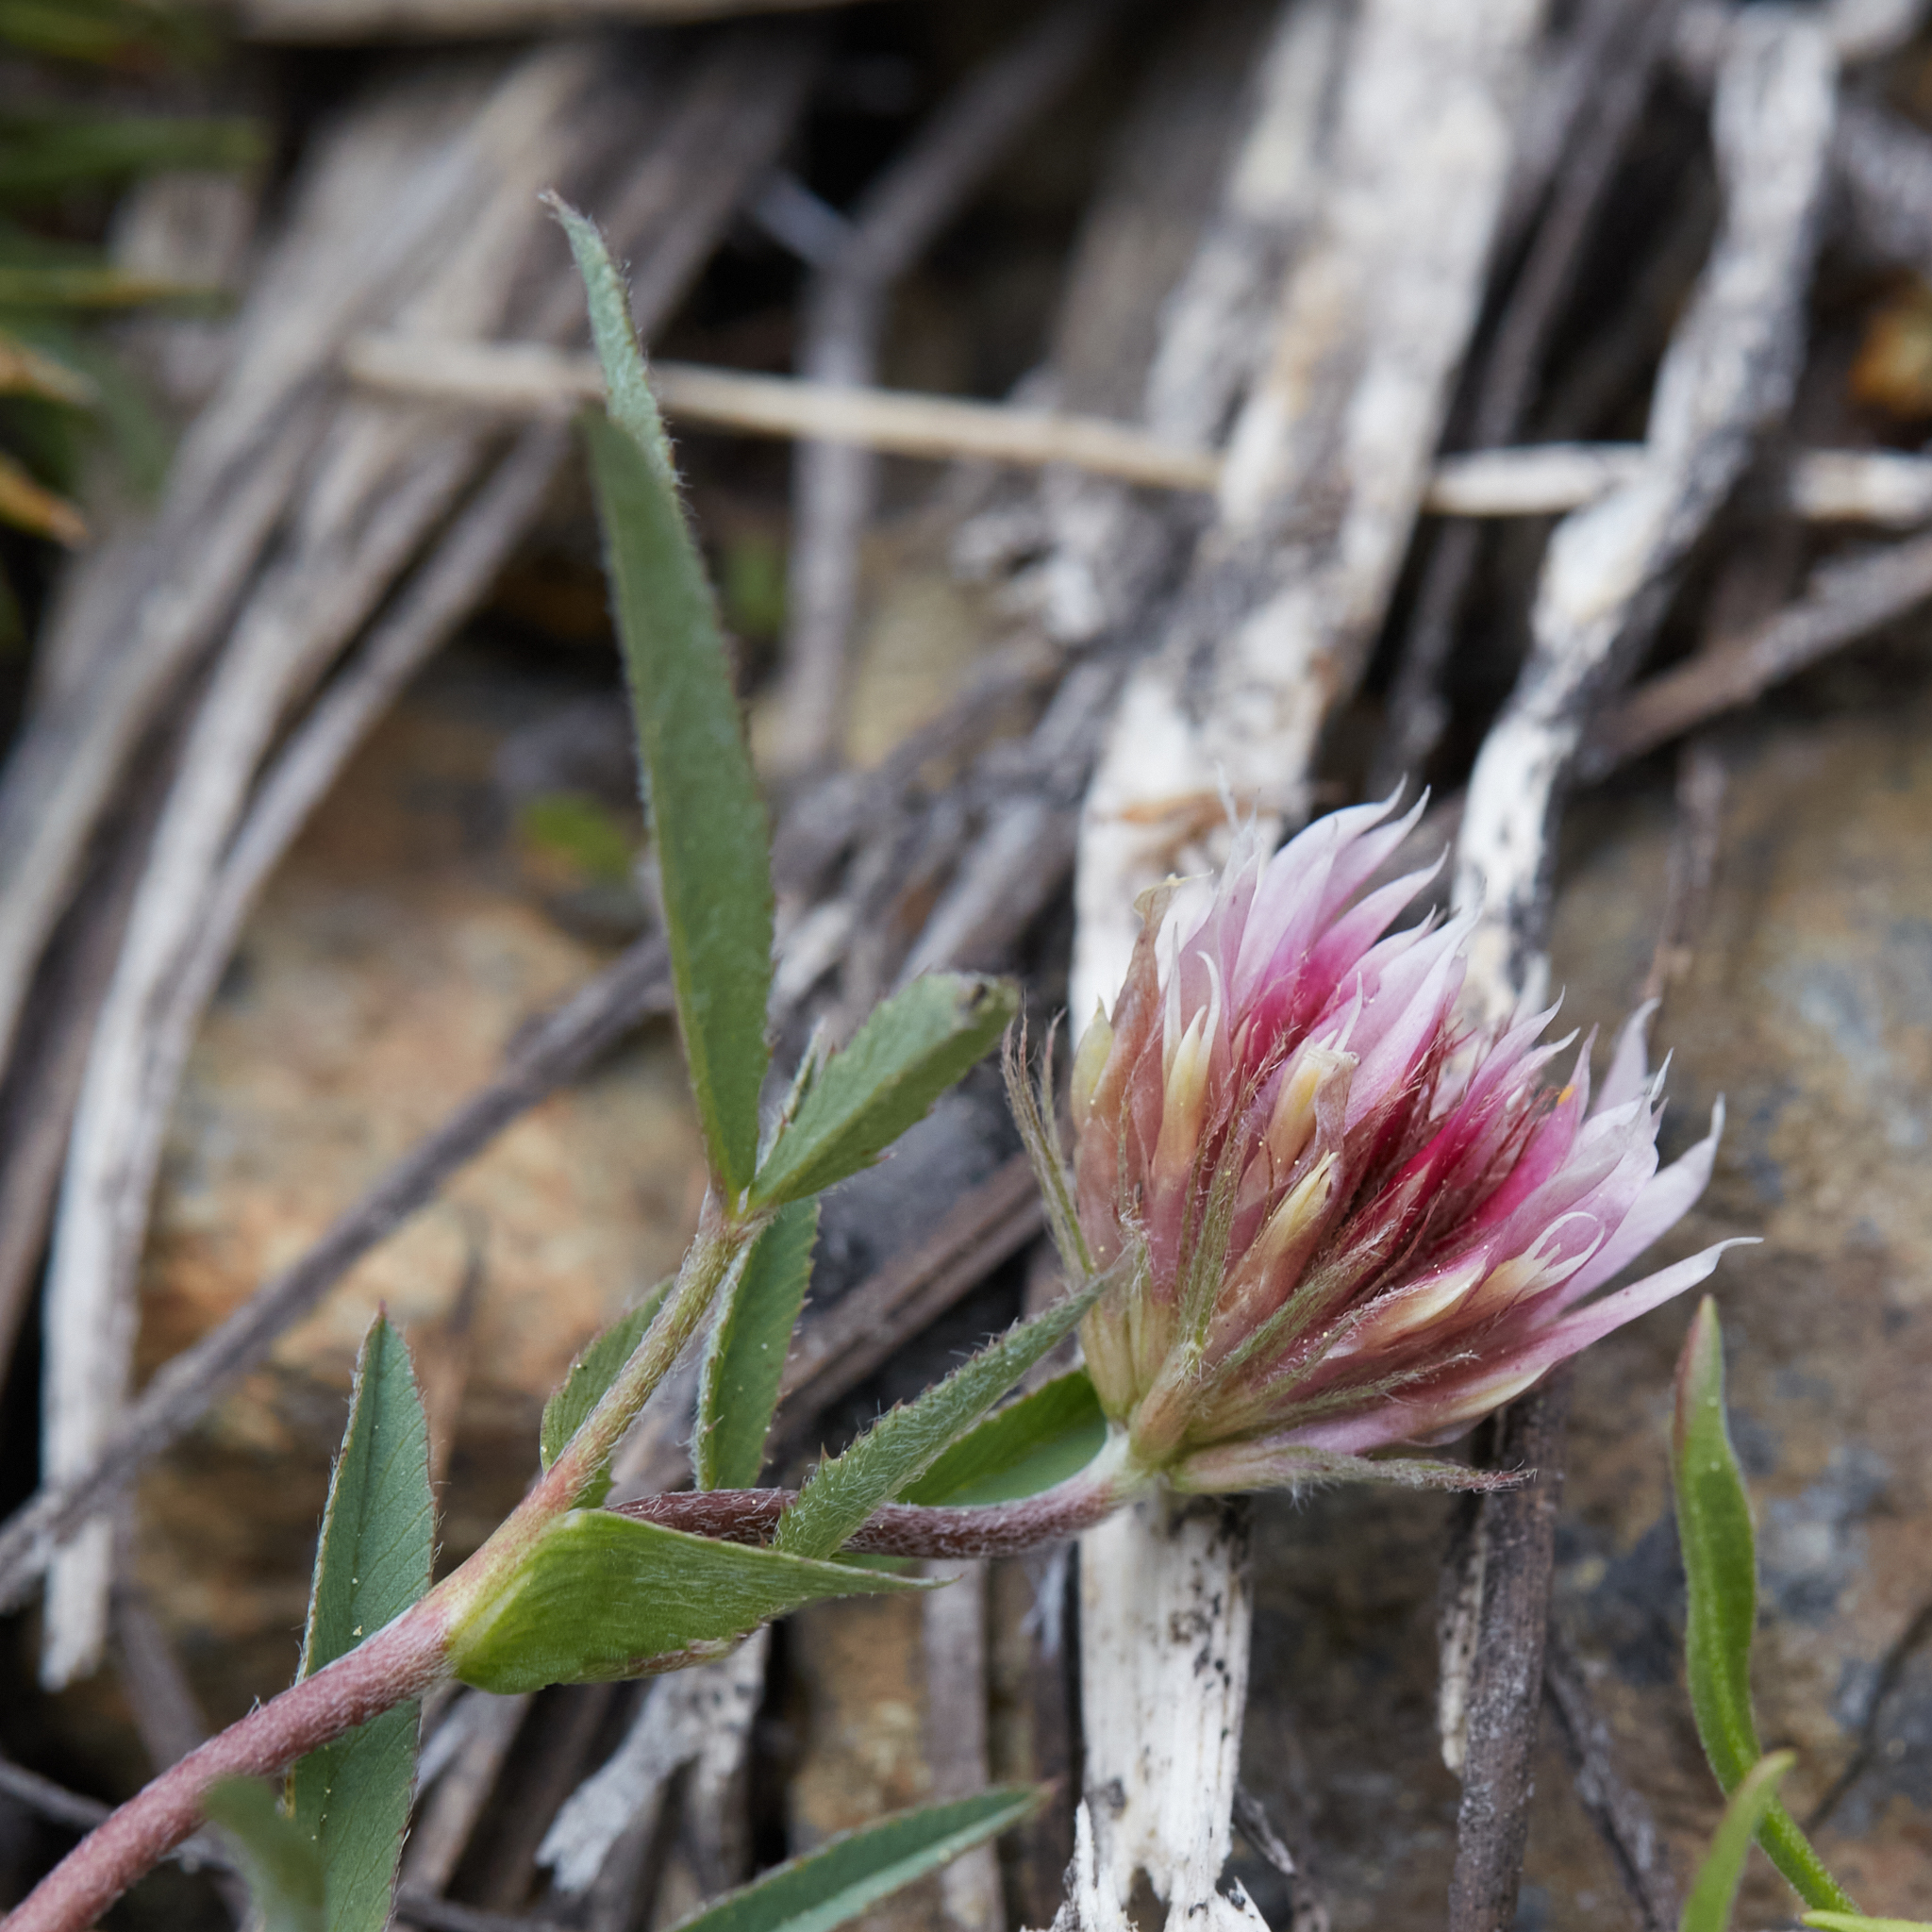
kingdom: Plantae
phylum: Tracheophyta
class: Magnoliopsida
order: Fabales
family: Fabaceae
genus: Trifolium
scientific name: Trifolium longipes
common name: Long-stalk clover
